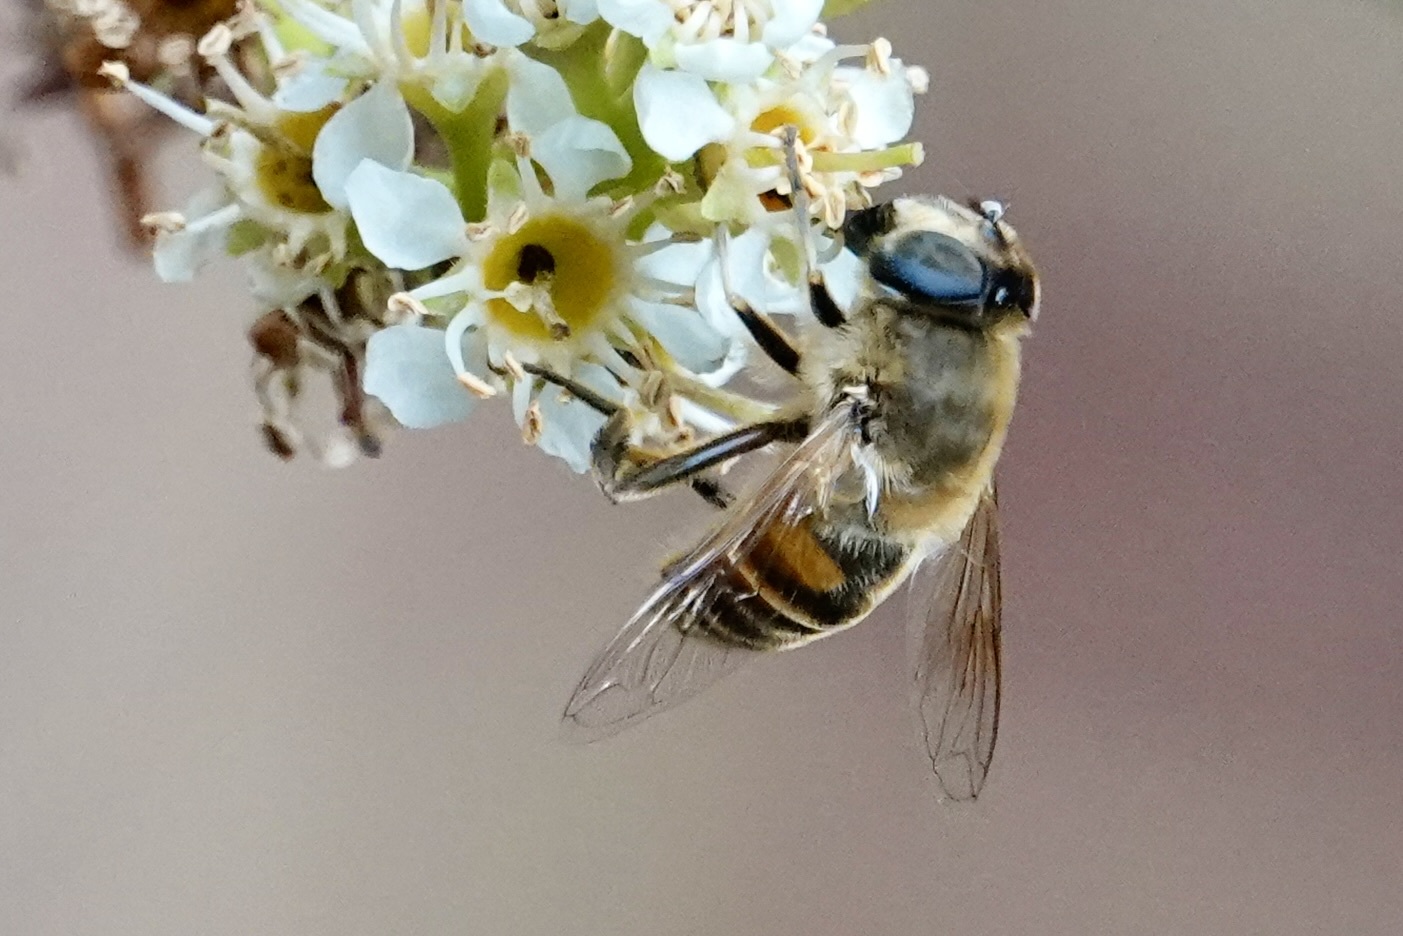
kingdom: Animalia
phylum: Arthropoda
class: Insecta
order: Diptera
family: Syrphidae
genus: Eristalis
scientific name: Eristalis tenax
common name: Drone fly
